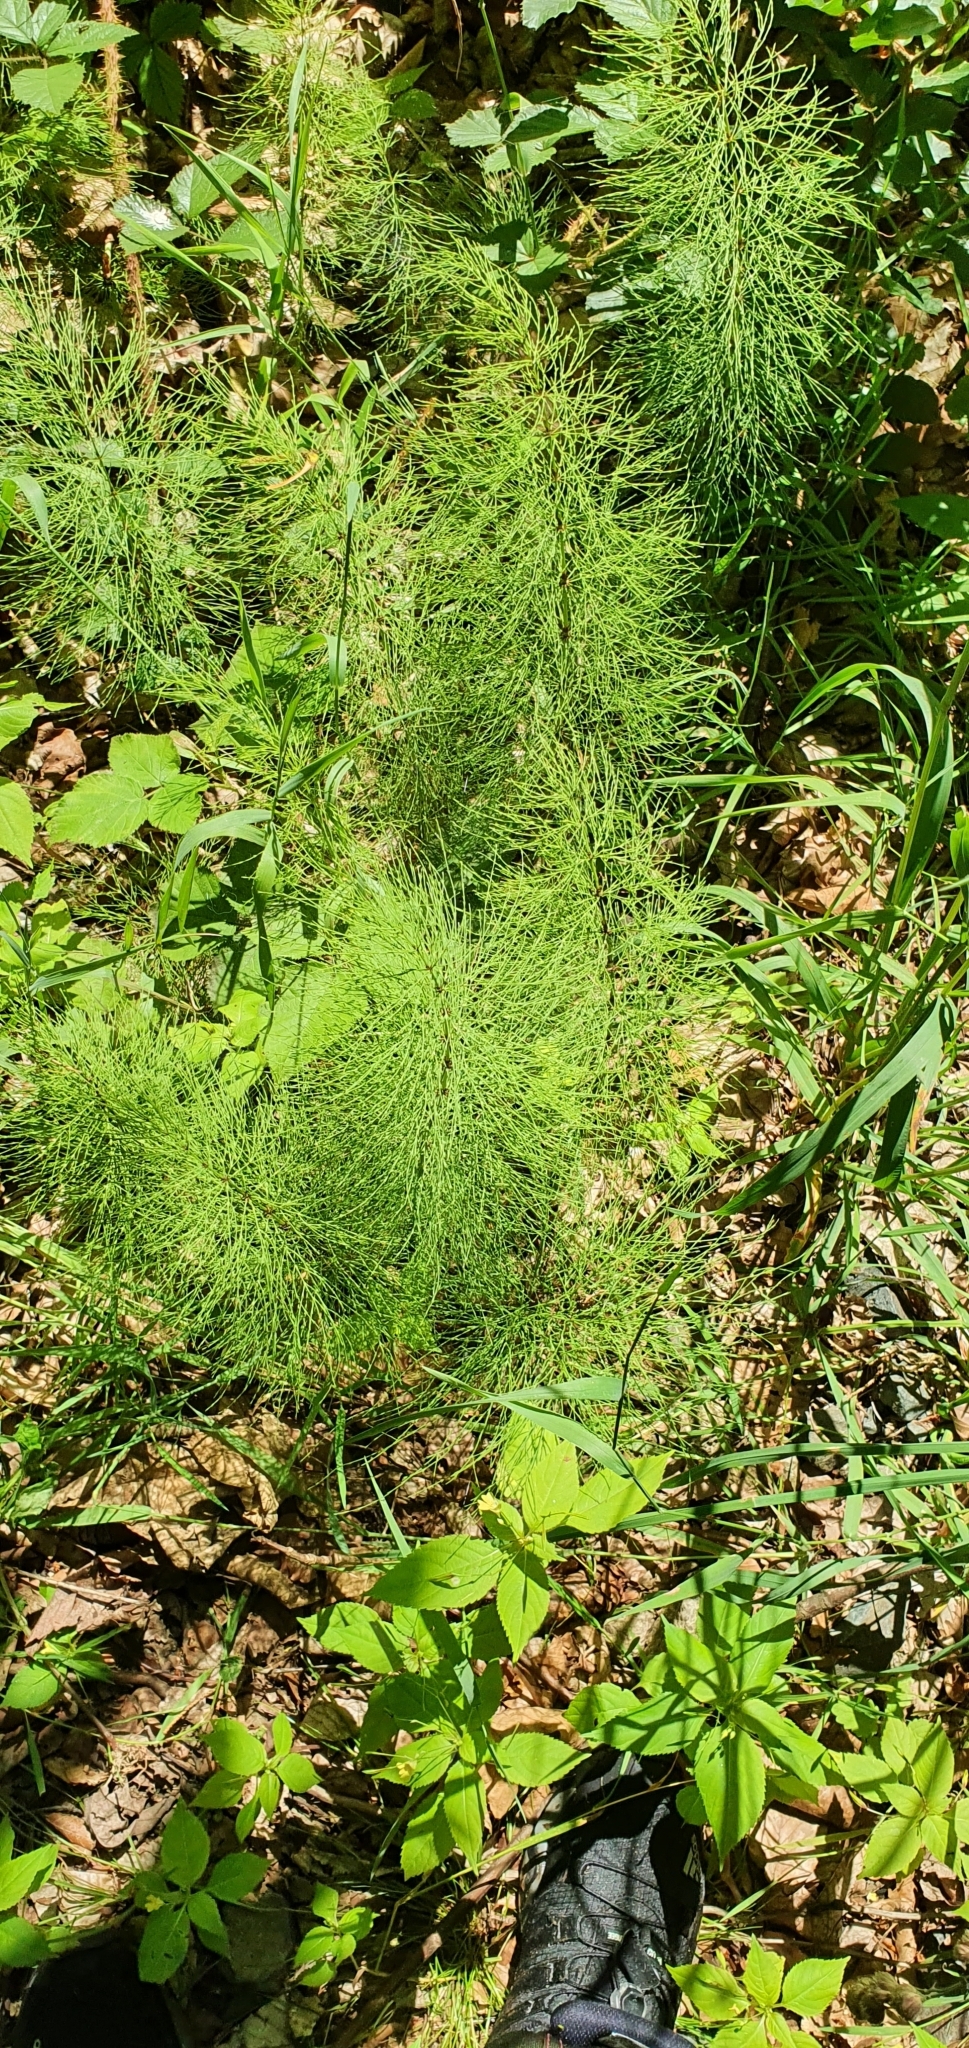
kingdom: Plantae
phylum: Tracheophyta
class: Polypodiopsida
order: Equisetales
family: Equisetaceae
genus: Equisetum
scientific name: Equisetum sylvaticum
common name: Wood horsetail
